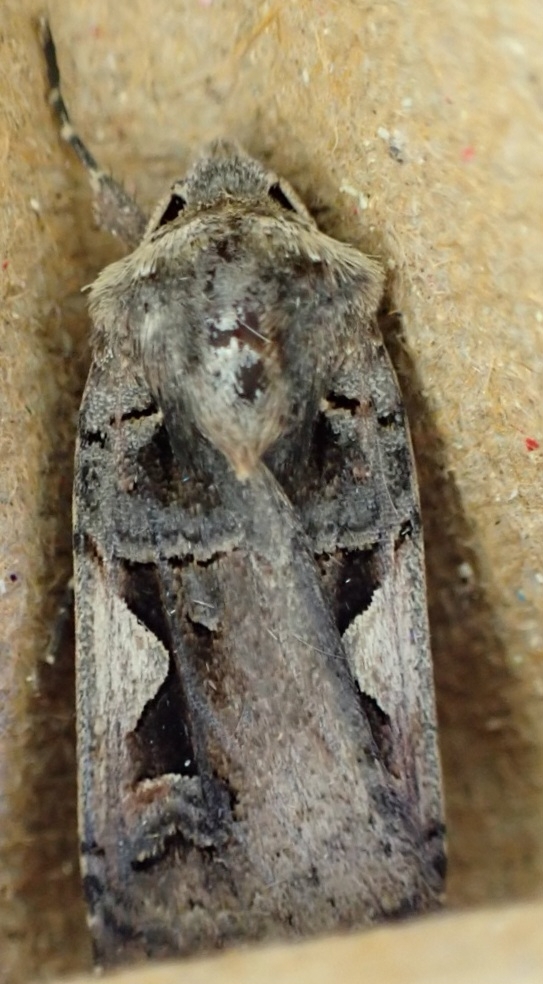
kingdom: Animalia
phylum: Arthropoda
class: Insecta
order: Lepidoptera
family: Noctuidae
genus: Xestia
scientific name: Xestia c-nigrum
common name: Setaceous hebrew character
